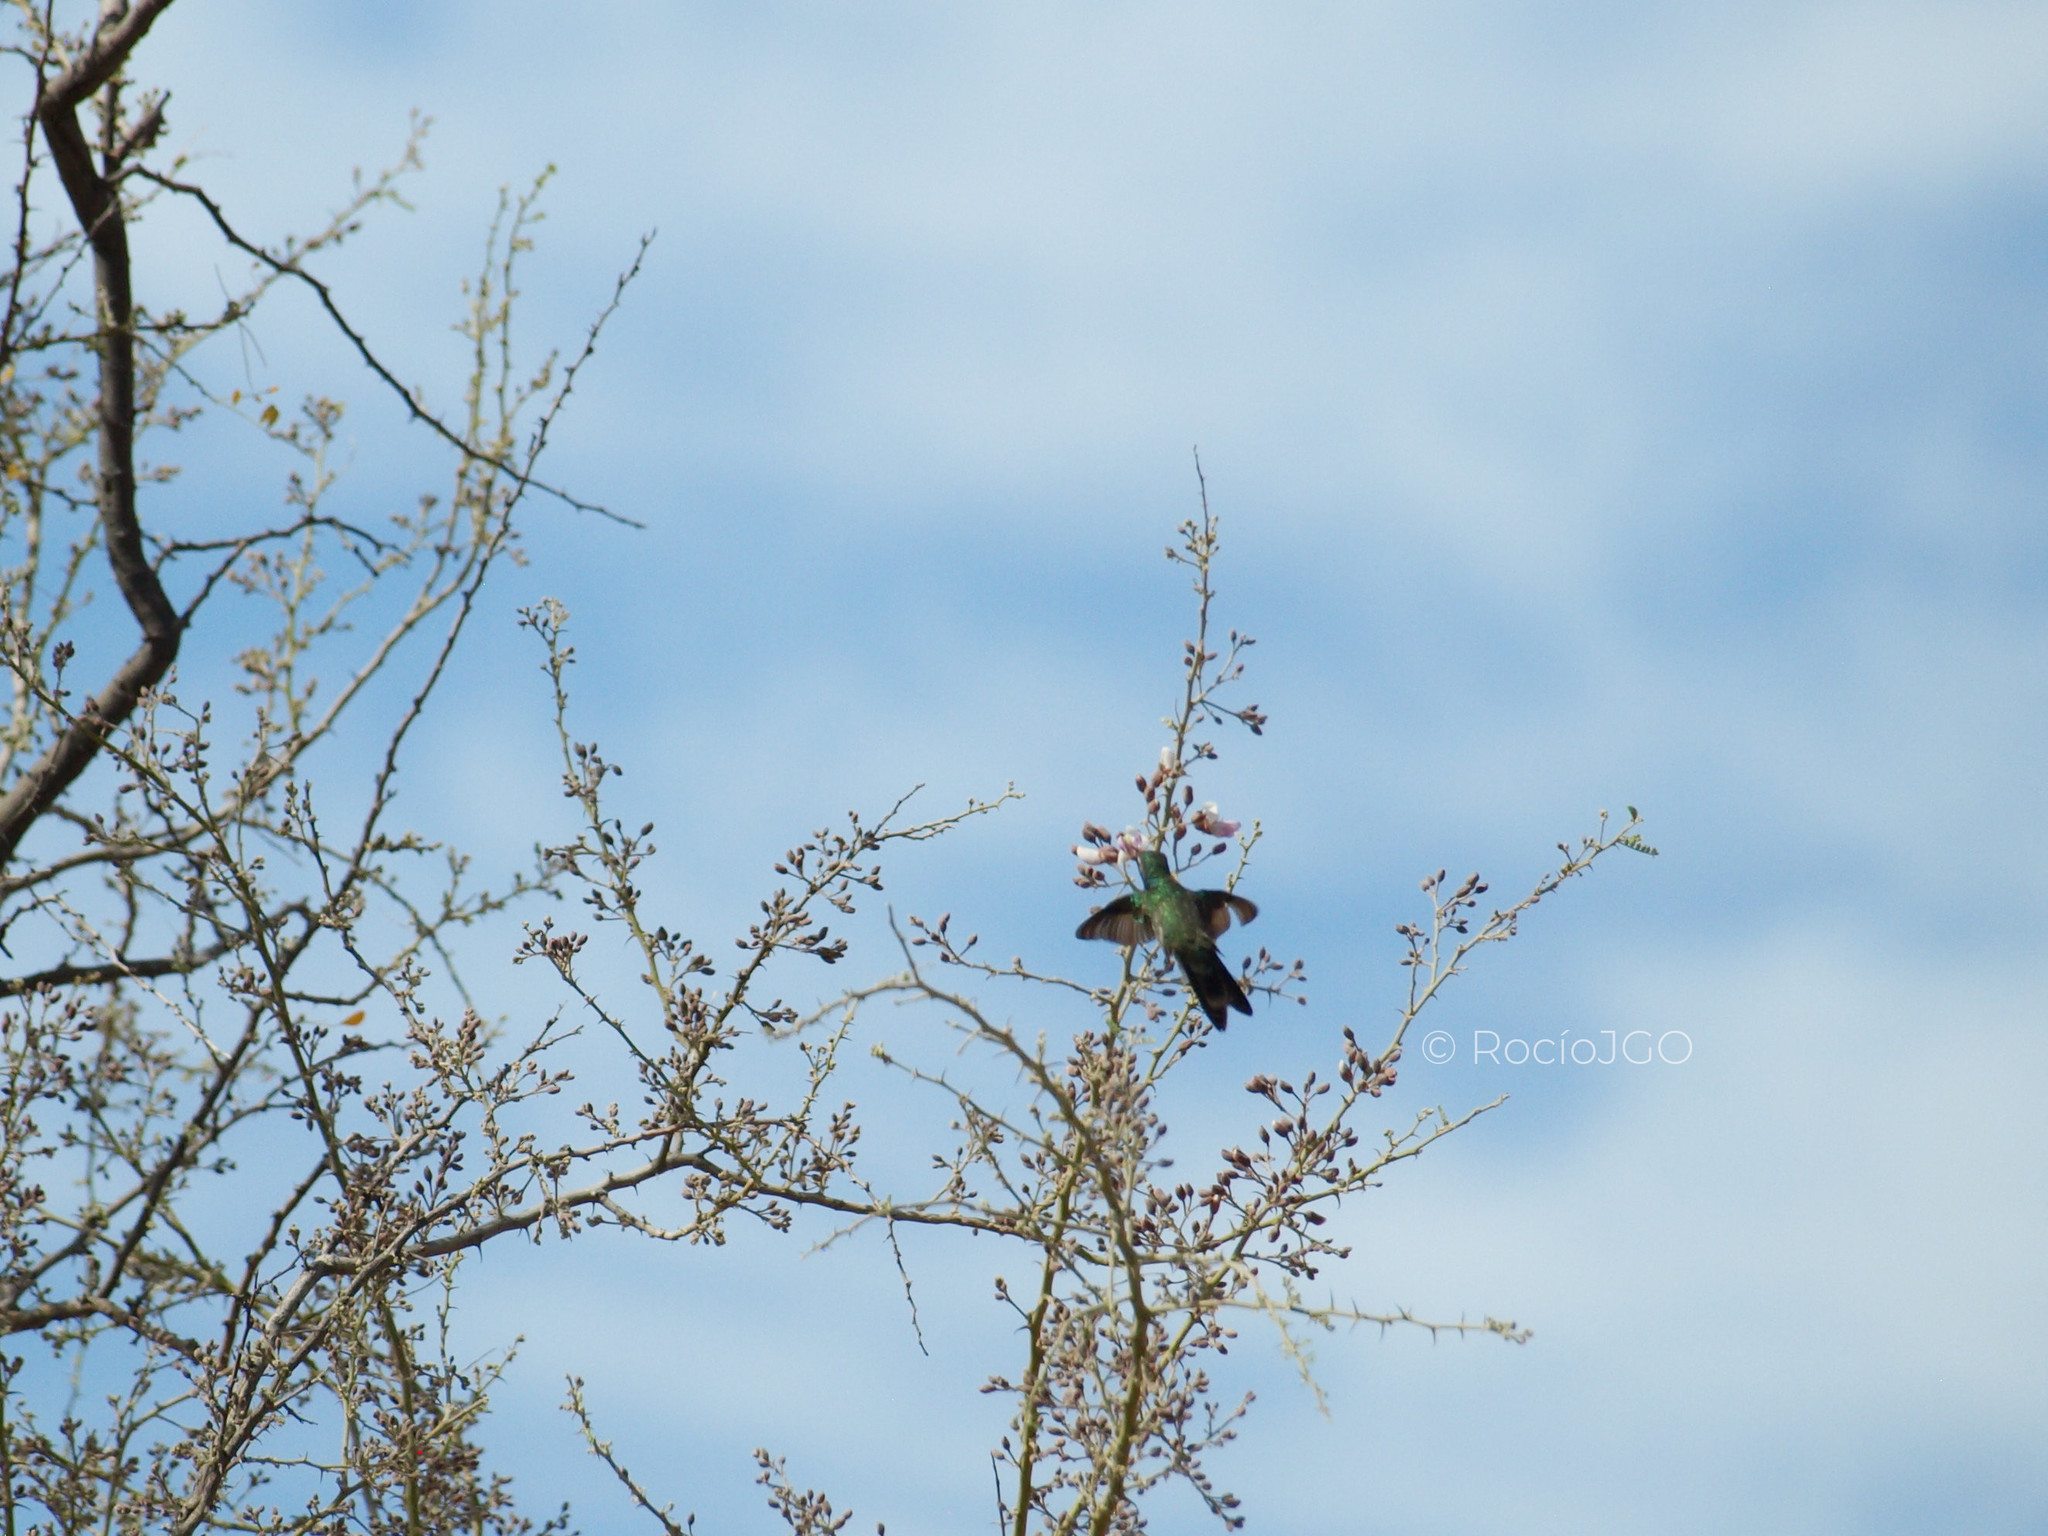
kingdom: Animalia
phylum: Chordata
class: Aves
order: Apodiformes
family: Trochilidae
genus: Cynanthus
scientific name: Cynanthus latirostris
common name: Broad-billed hummingbird
